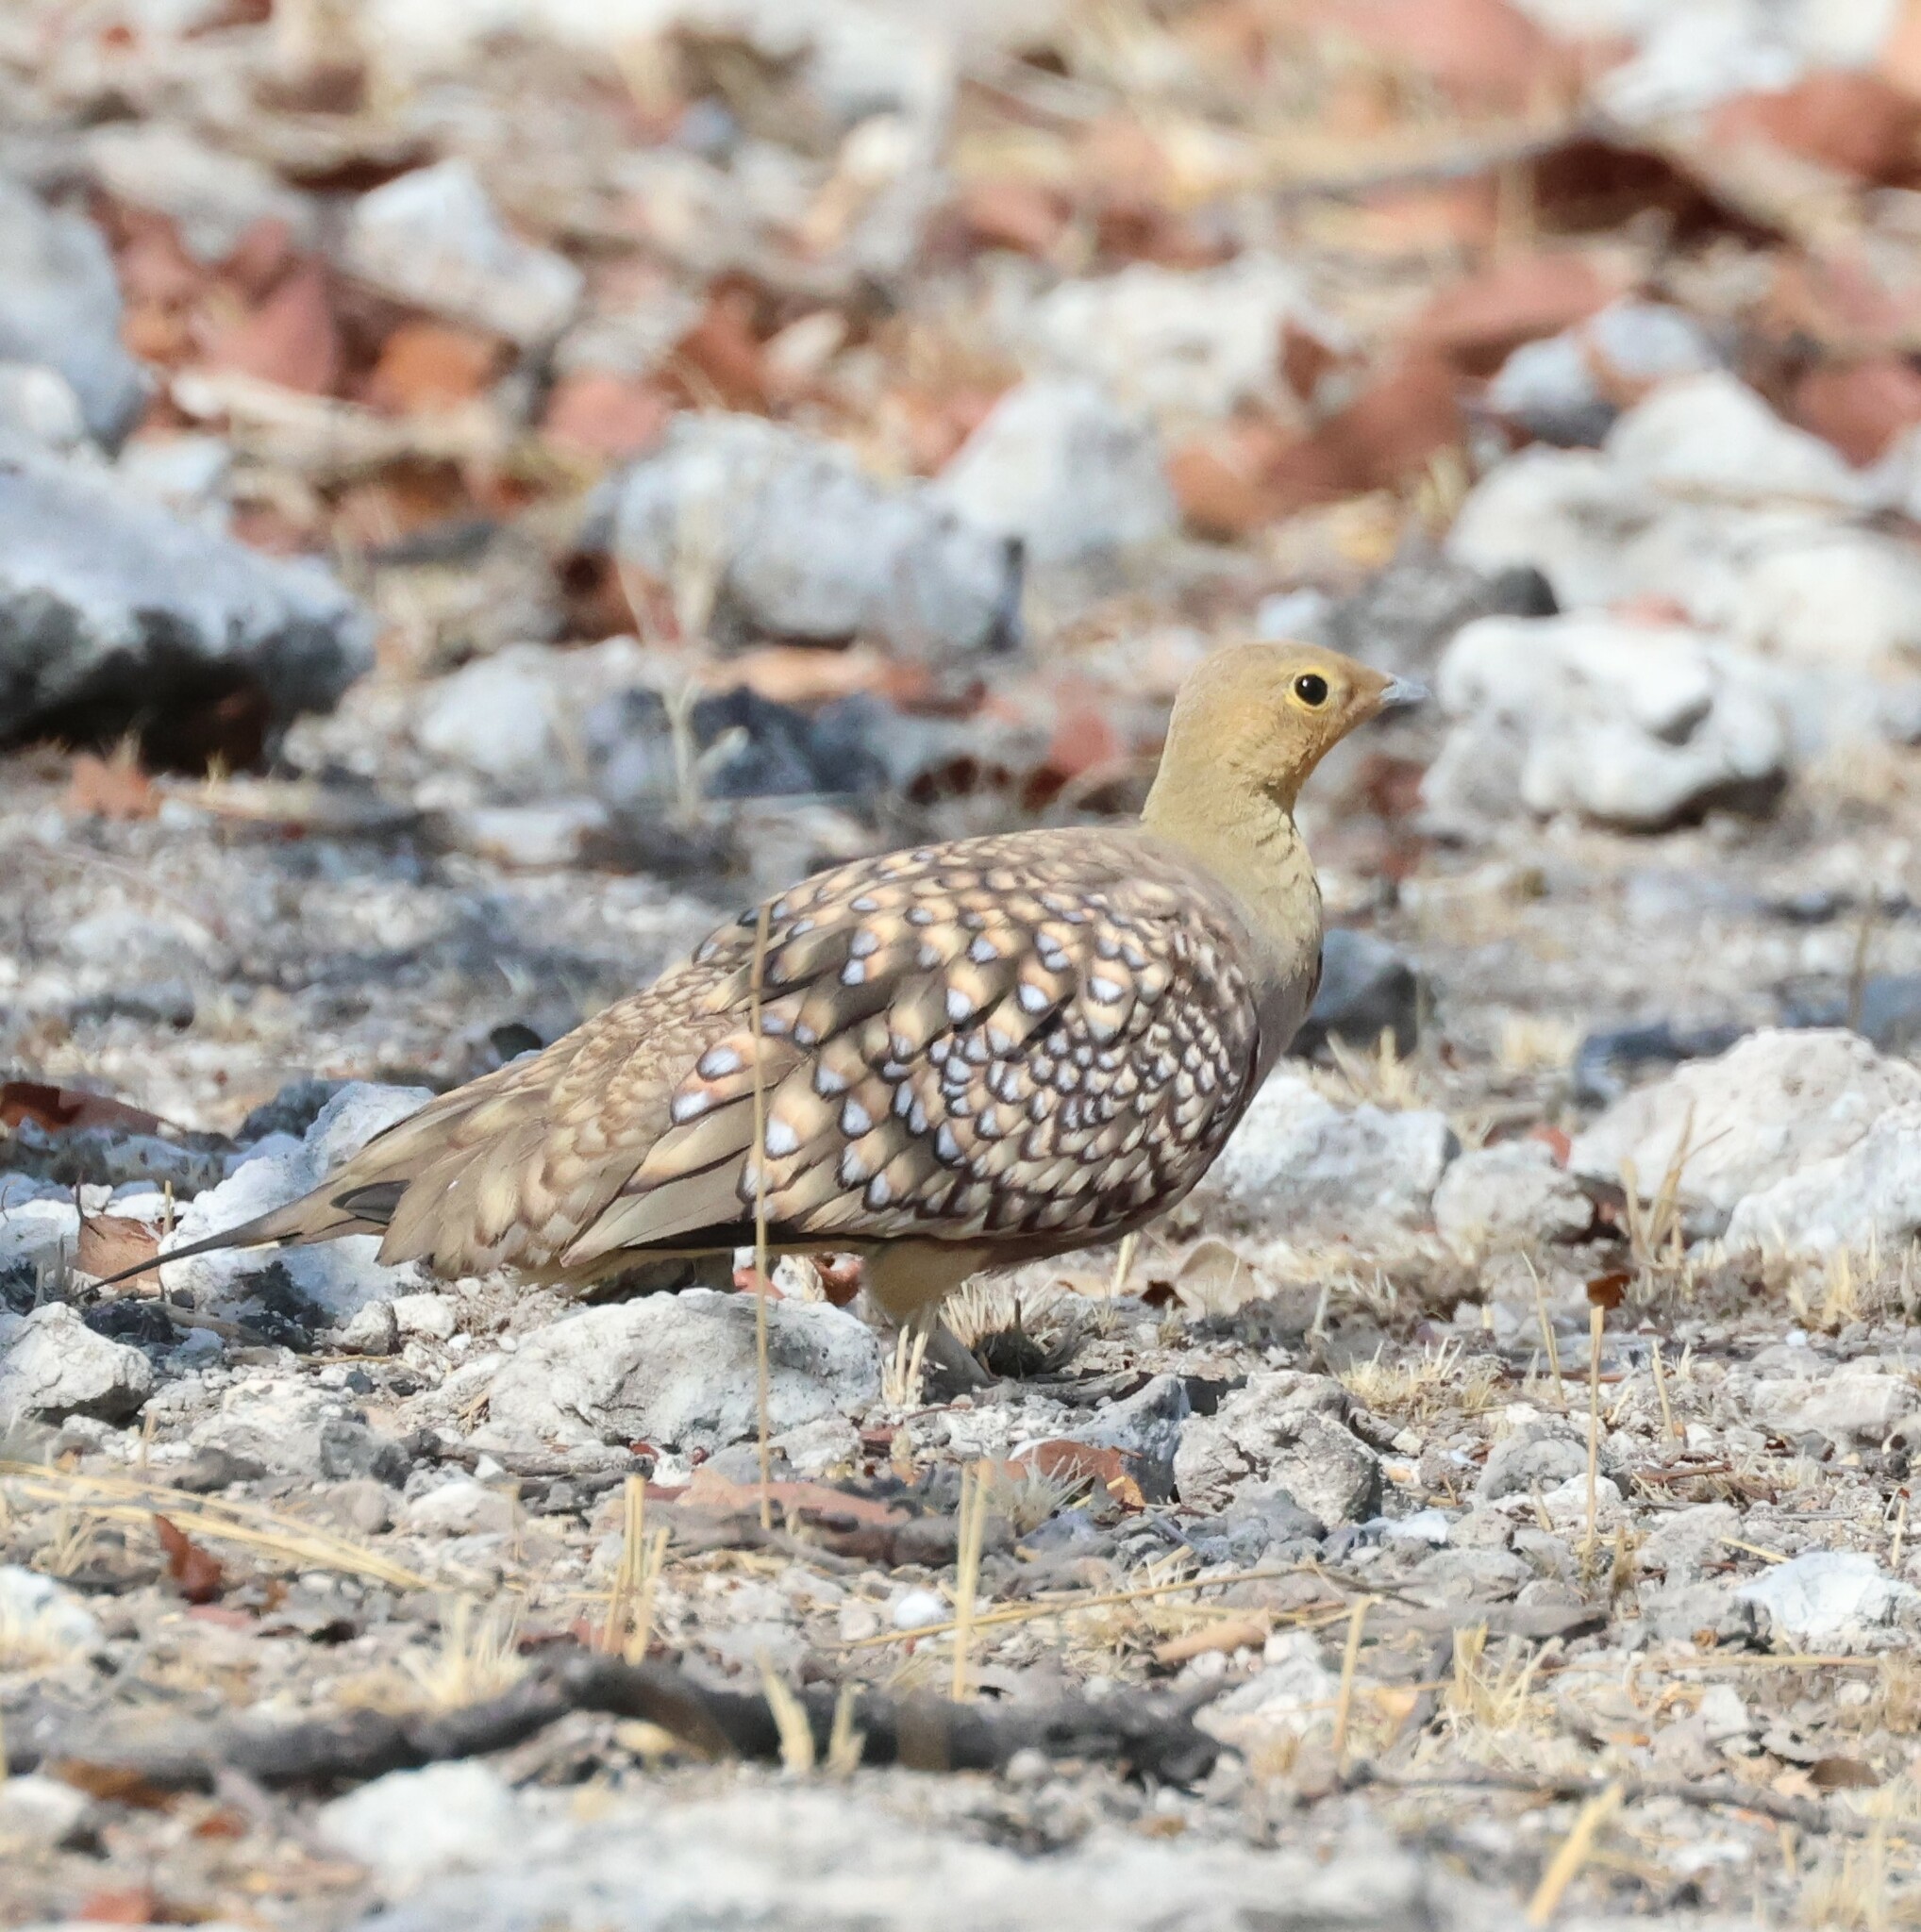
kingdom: Animalia
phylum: Chordata
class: Aves
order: Pteroclidiformes
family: Pteroclididae
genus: Pterocles
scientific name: Pterocles namaqua
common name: Namaqua sandgrouse
